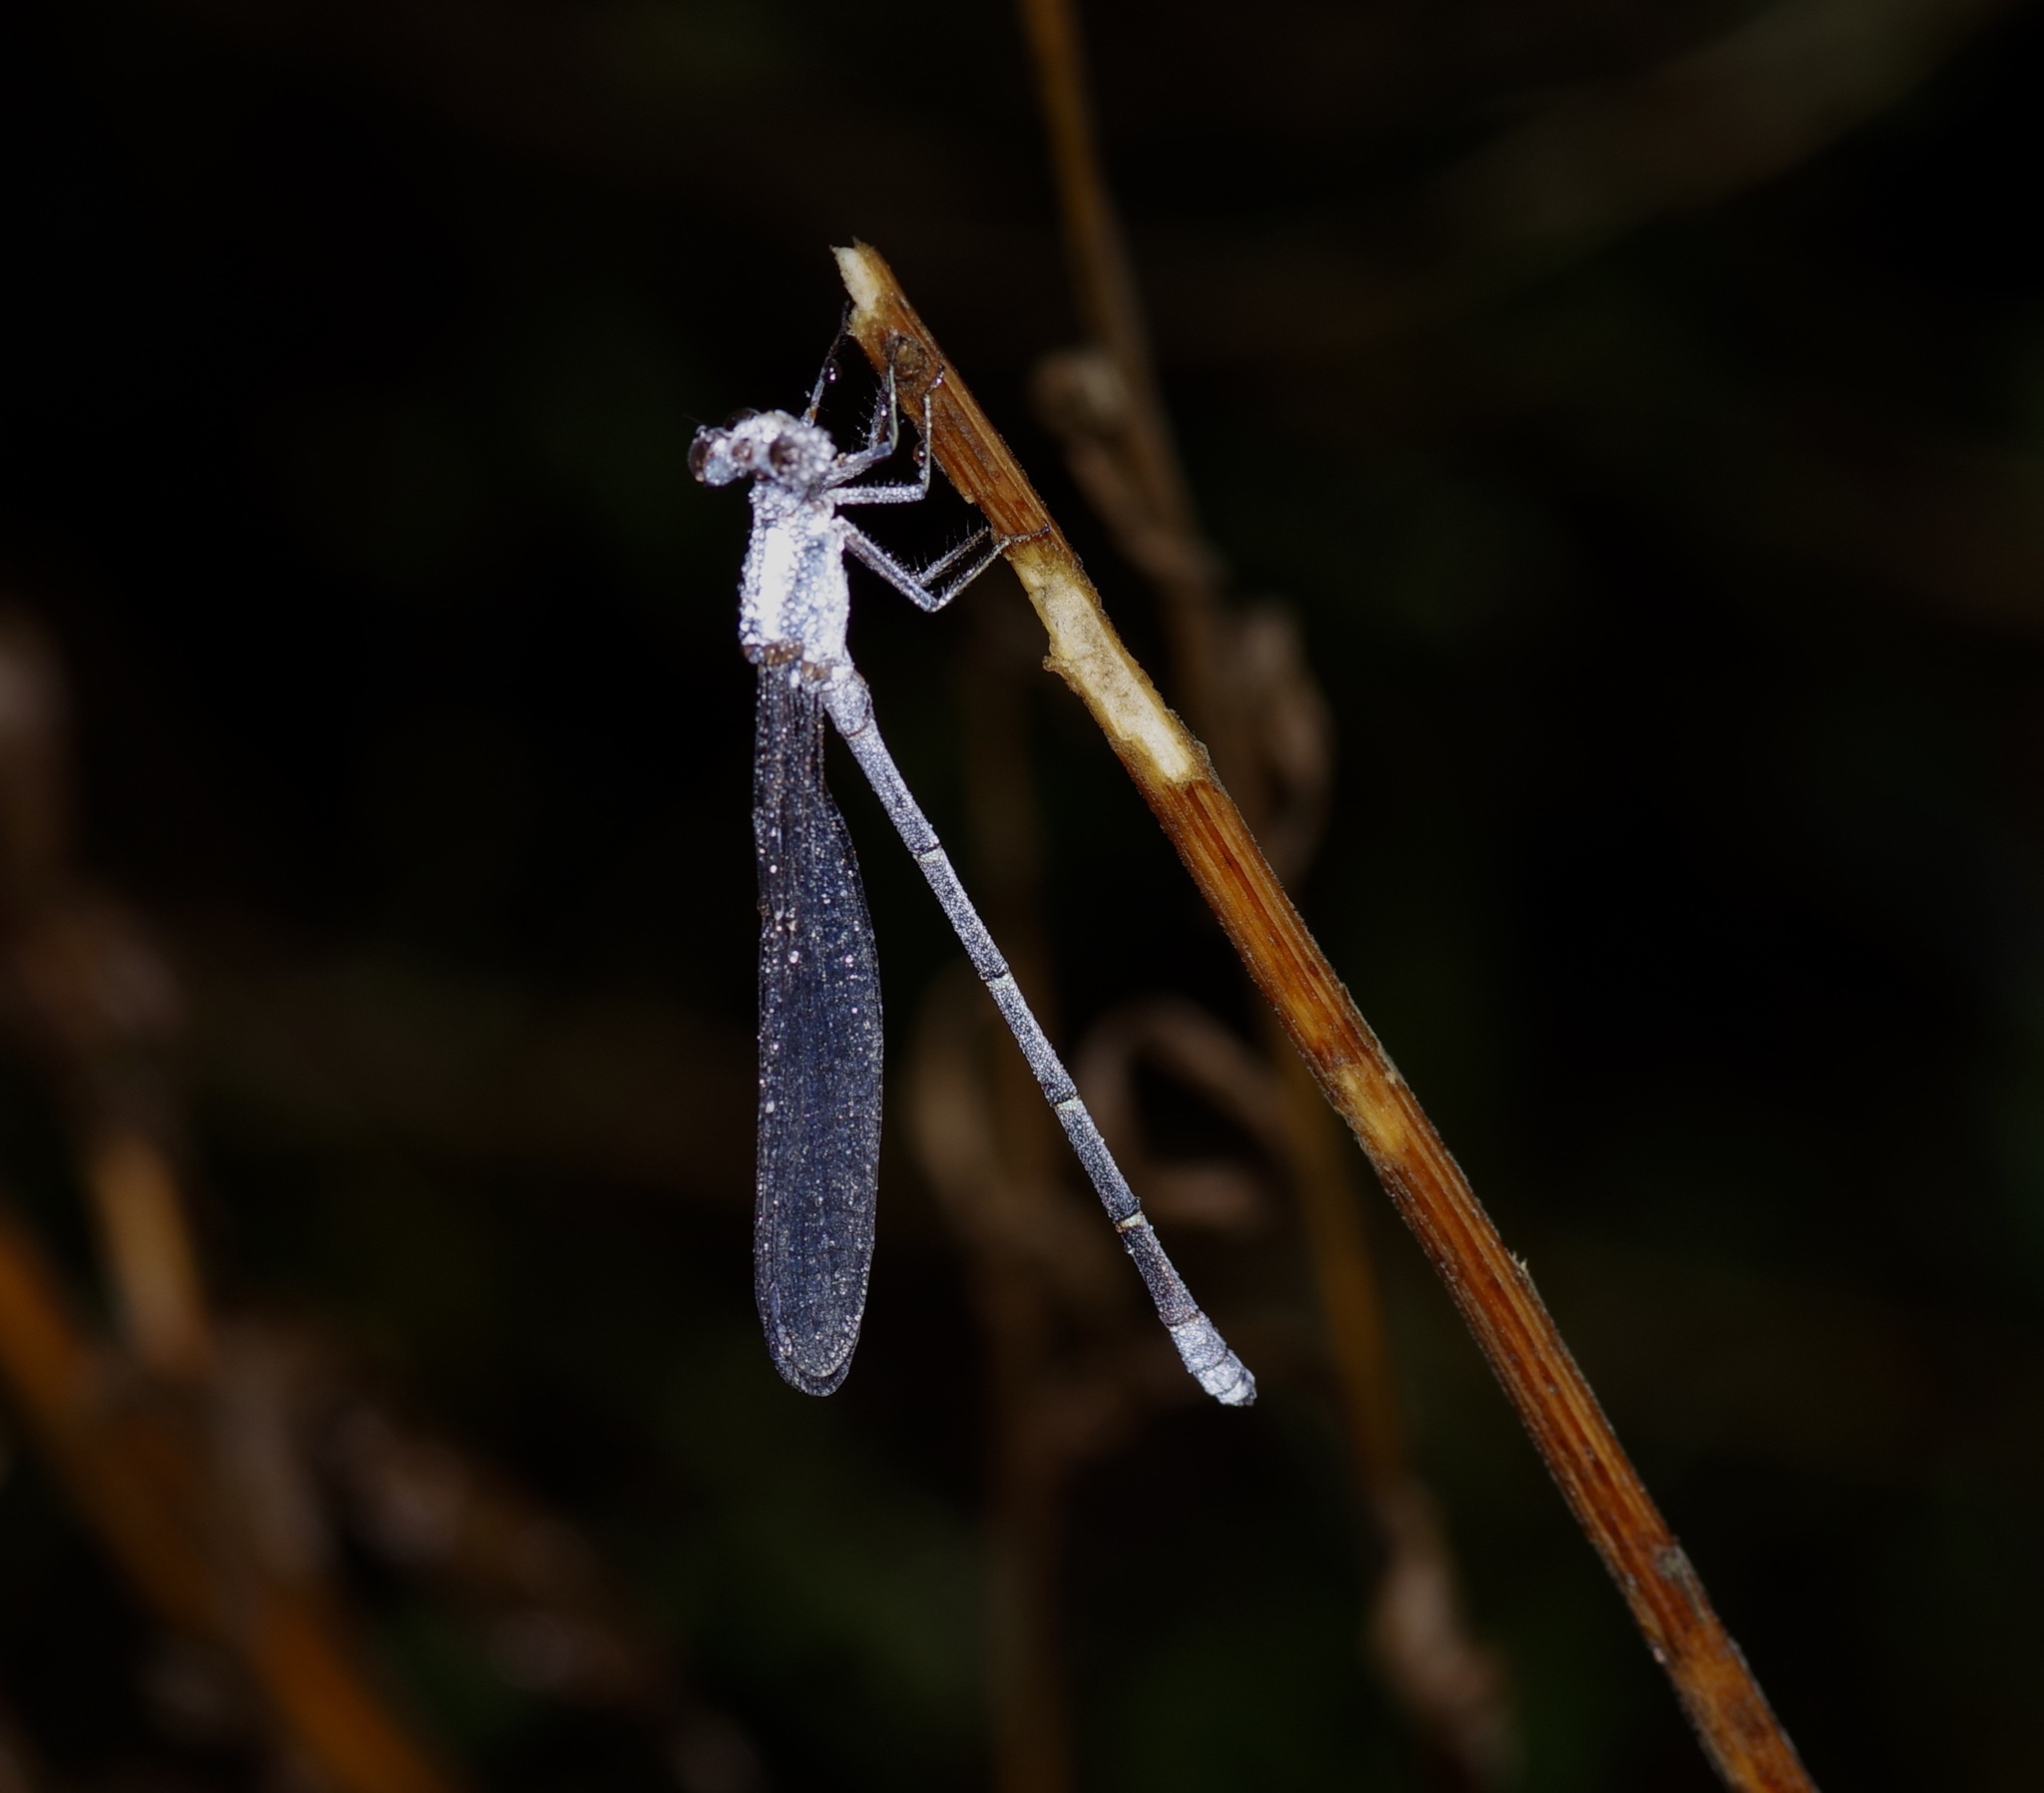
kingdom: Animalia
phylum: Arthropoda
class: Insecta
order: Odonata
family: Coenagrionidae
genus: Argia
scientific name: Argia moesta
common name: Powdered dancer
